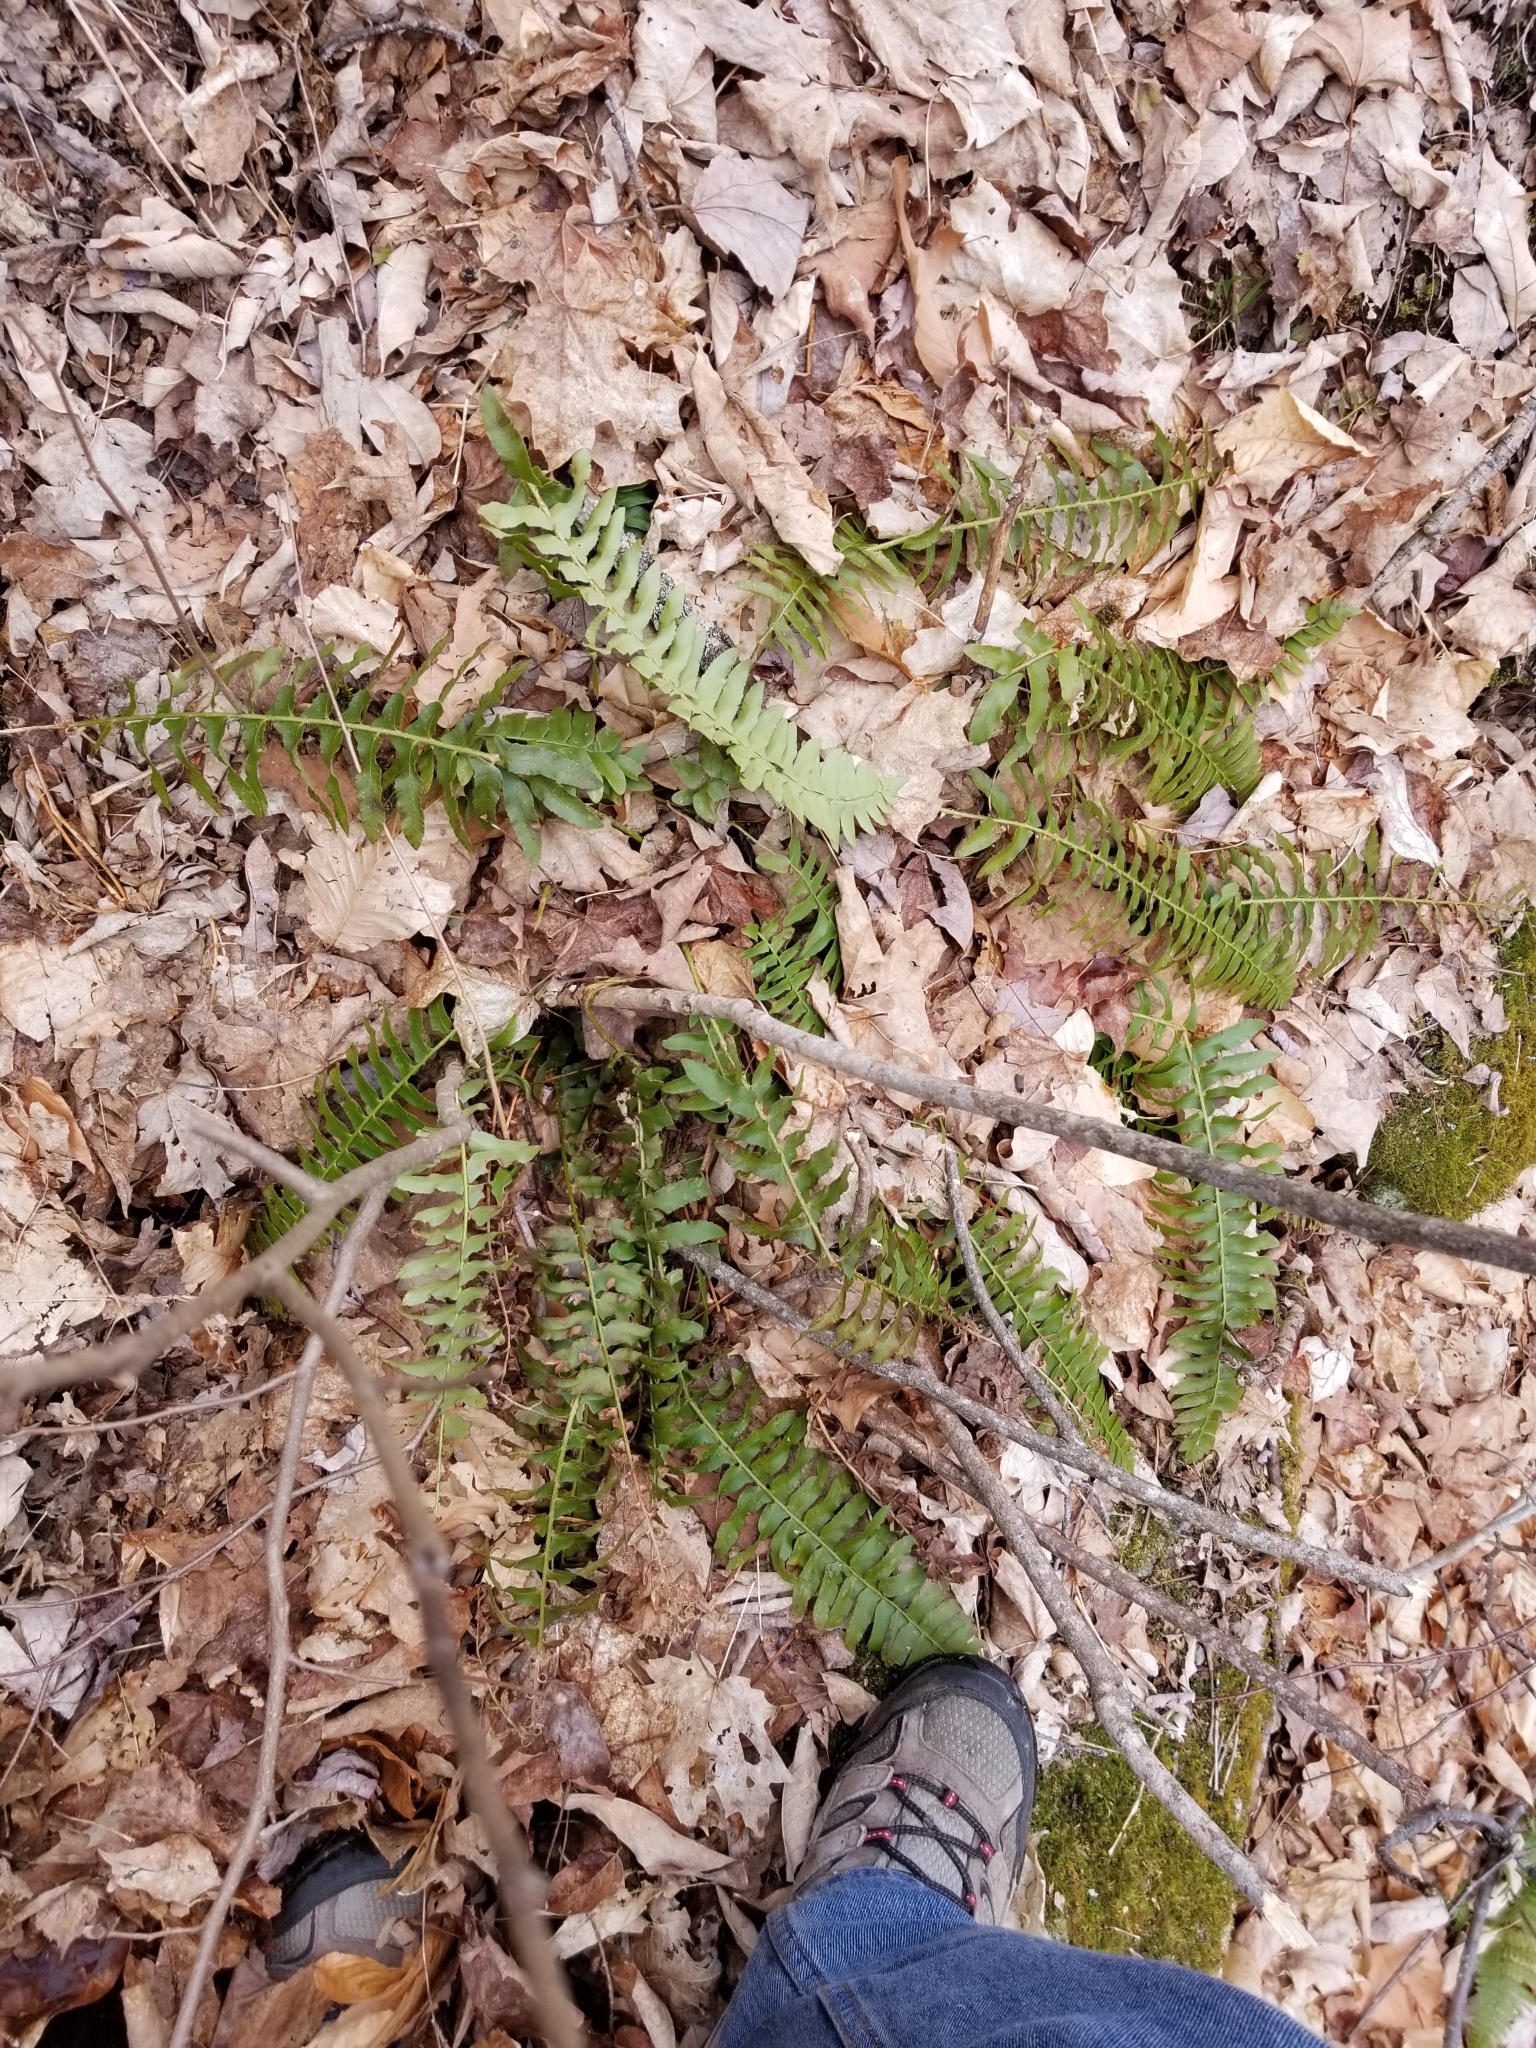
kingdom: Plantae
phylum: Tracheophyta
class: Polypodiopsida
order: Polypodiales
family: Dryopteridaceae
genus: Polystichum
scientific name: Polystichum acrostichoides
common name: Christmas fern
